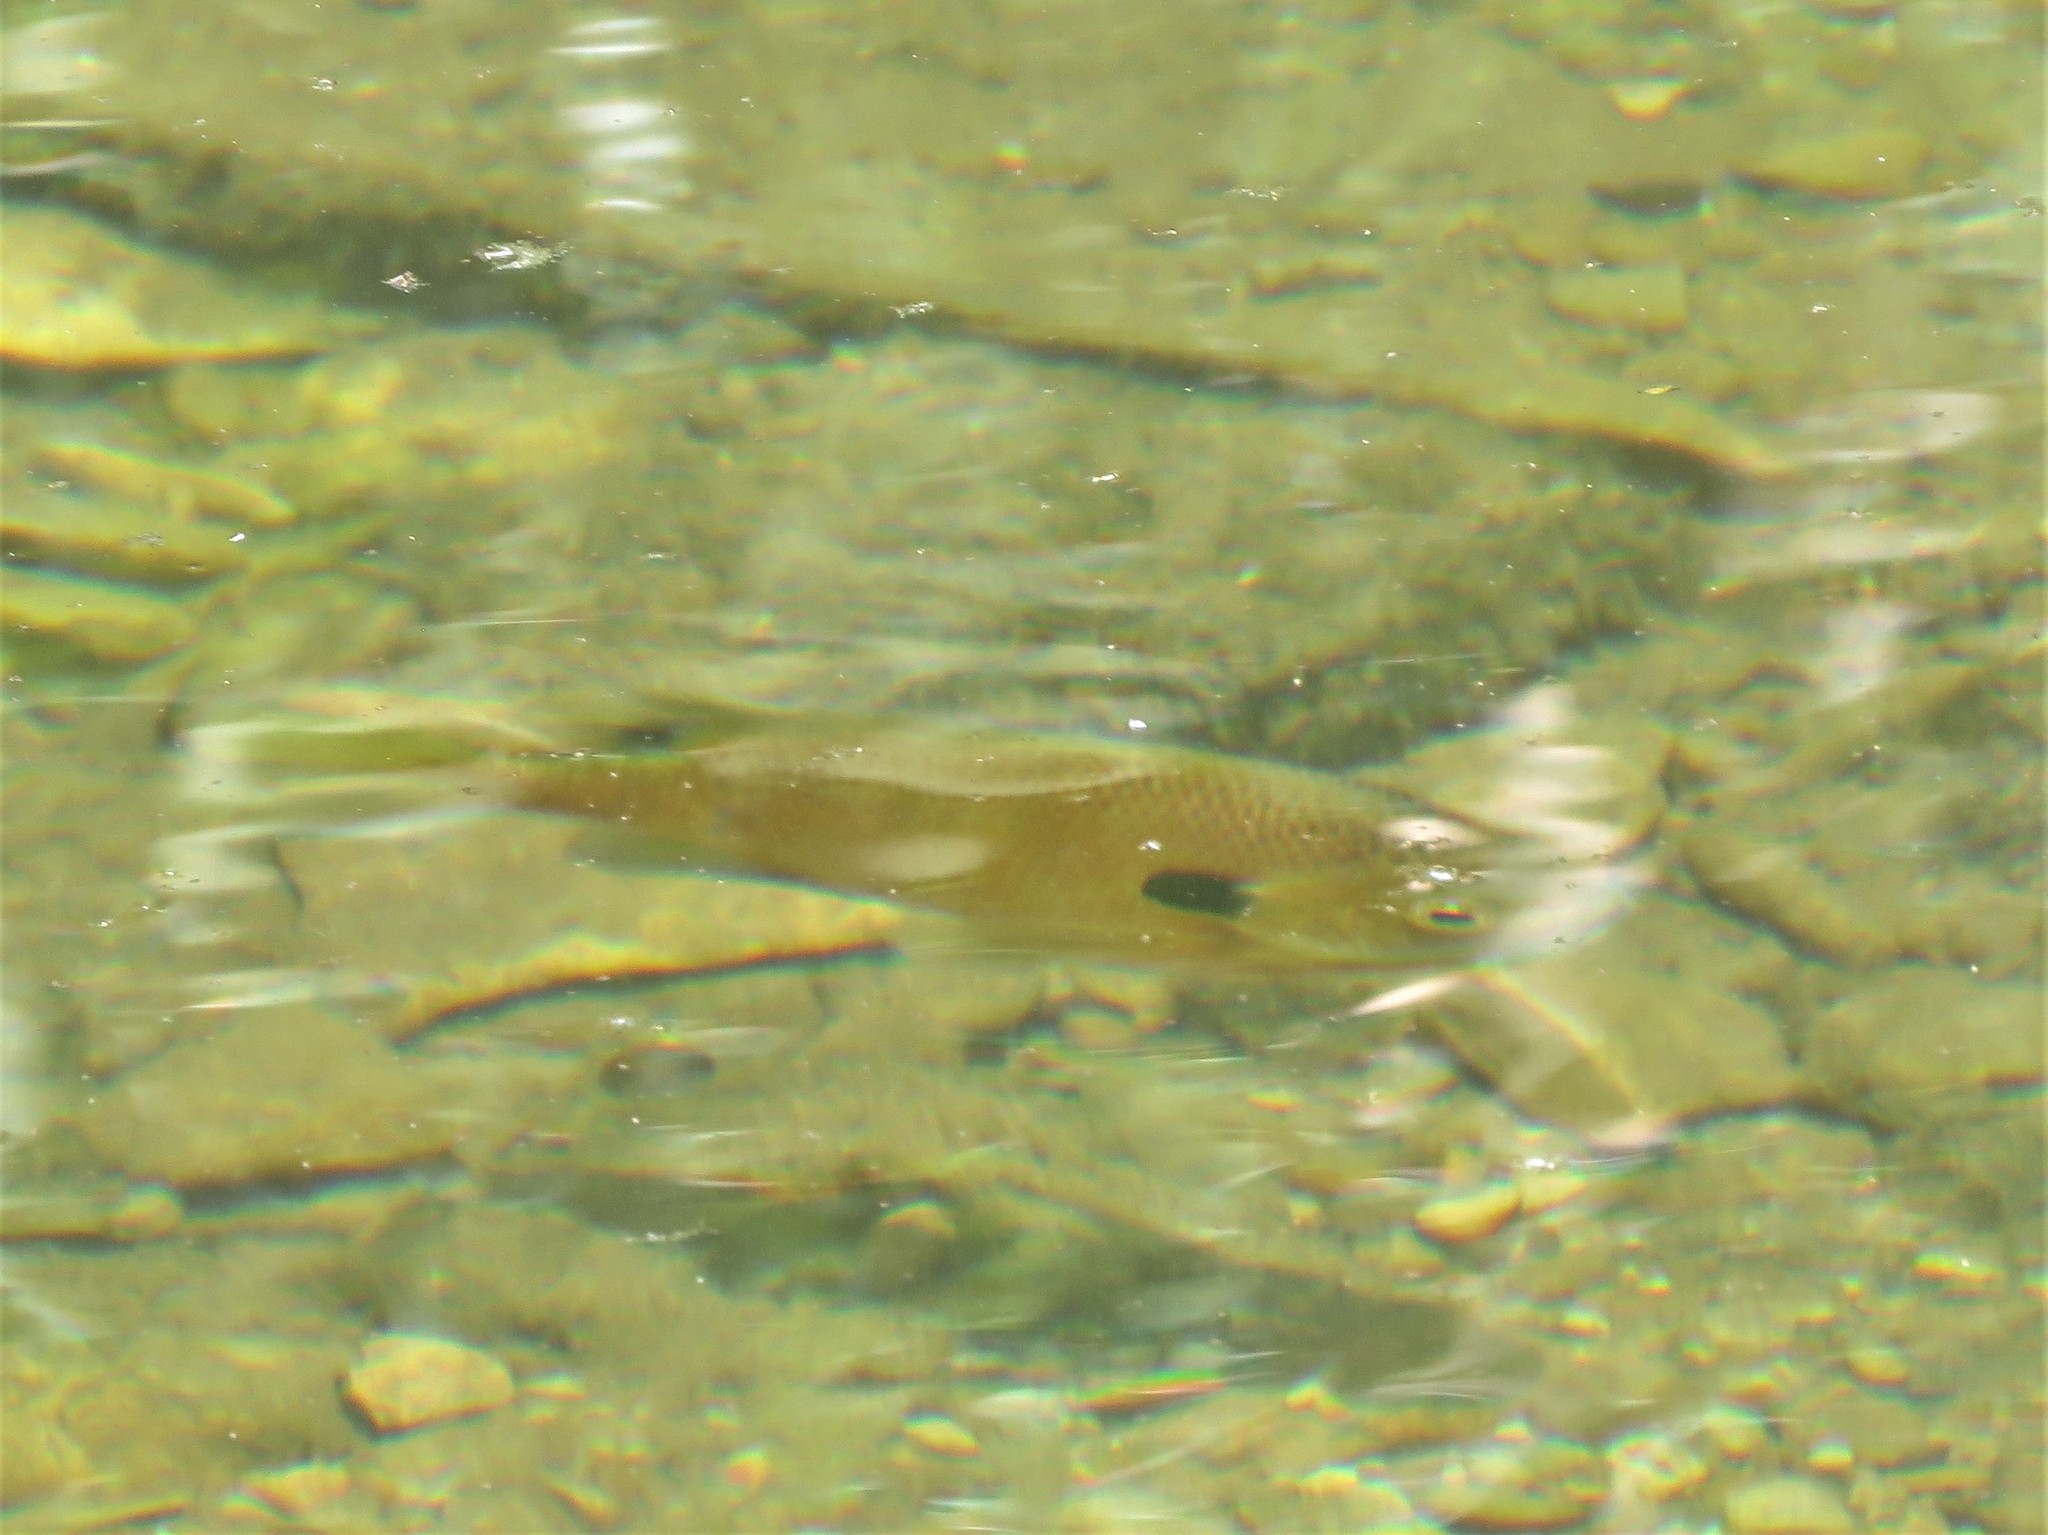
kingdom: Animalia
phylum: Chordata
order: Perciformes
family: Centrarchidae
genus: Lepomis
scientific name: Lepomis megalotis
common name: Longear sunfish
